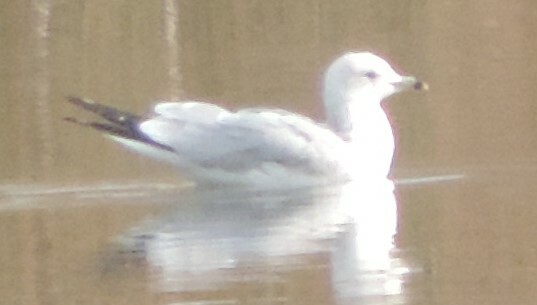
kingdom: Animalia
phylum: Chordata
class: Aves
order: Charadriiformes
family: Laridae
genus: Larus
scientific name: Larus delawarensis
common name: Ring-billed gull
